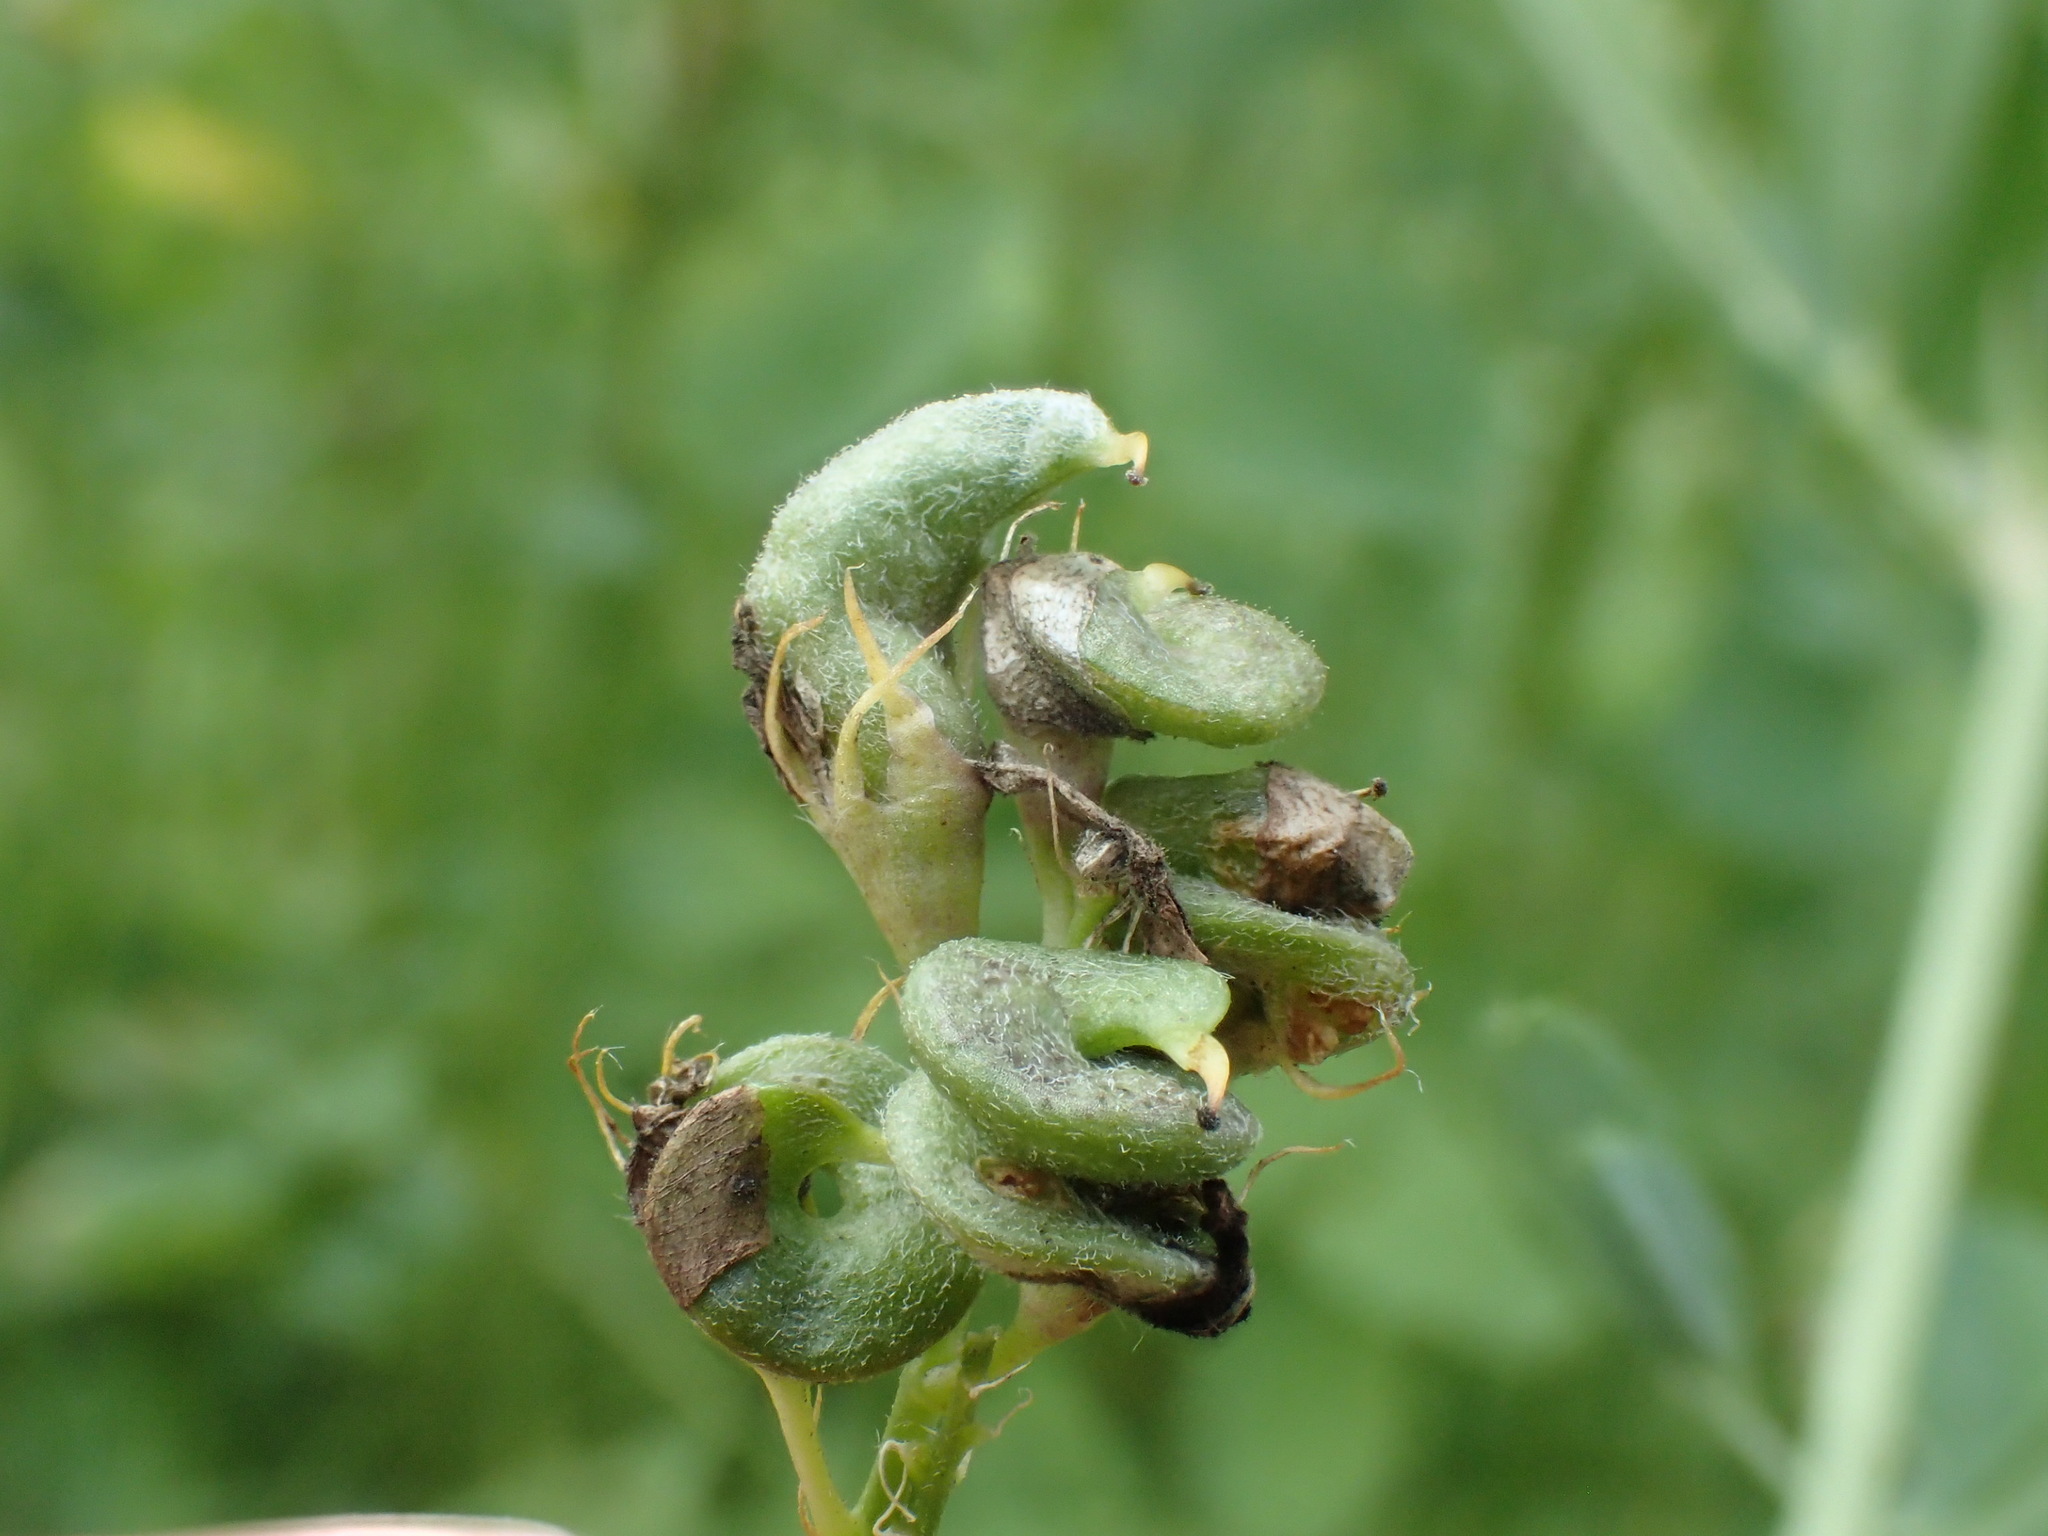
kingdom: Animalia
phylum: Arthropoda
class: Insecta
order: Diptera
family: Cecidomyiidae
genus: Asphondylia
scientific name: Asphondylia miki
